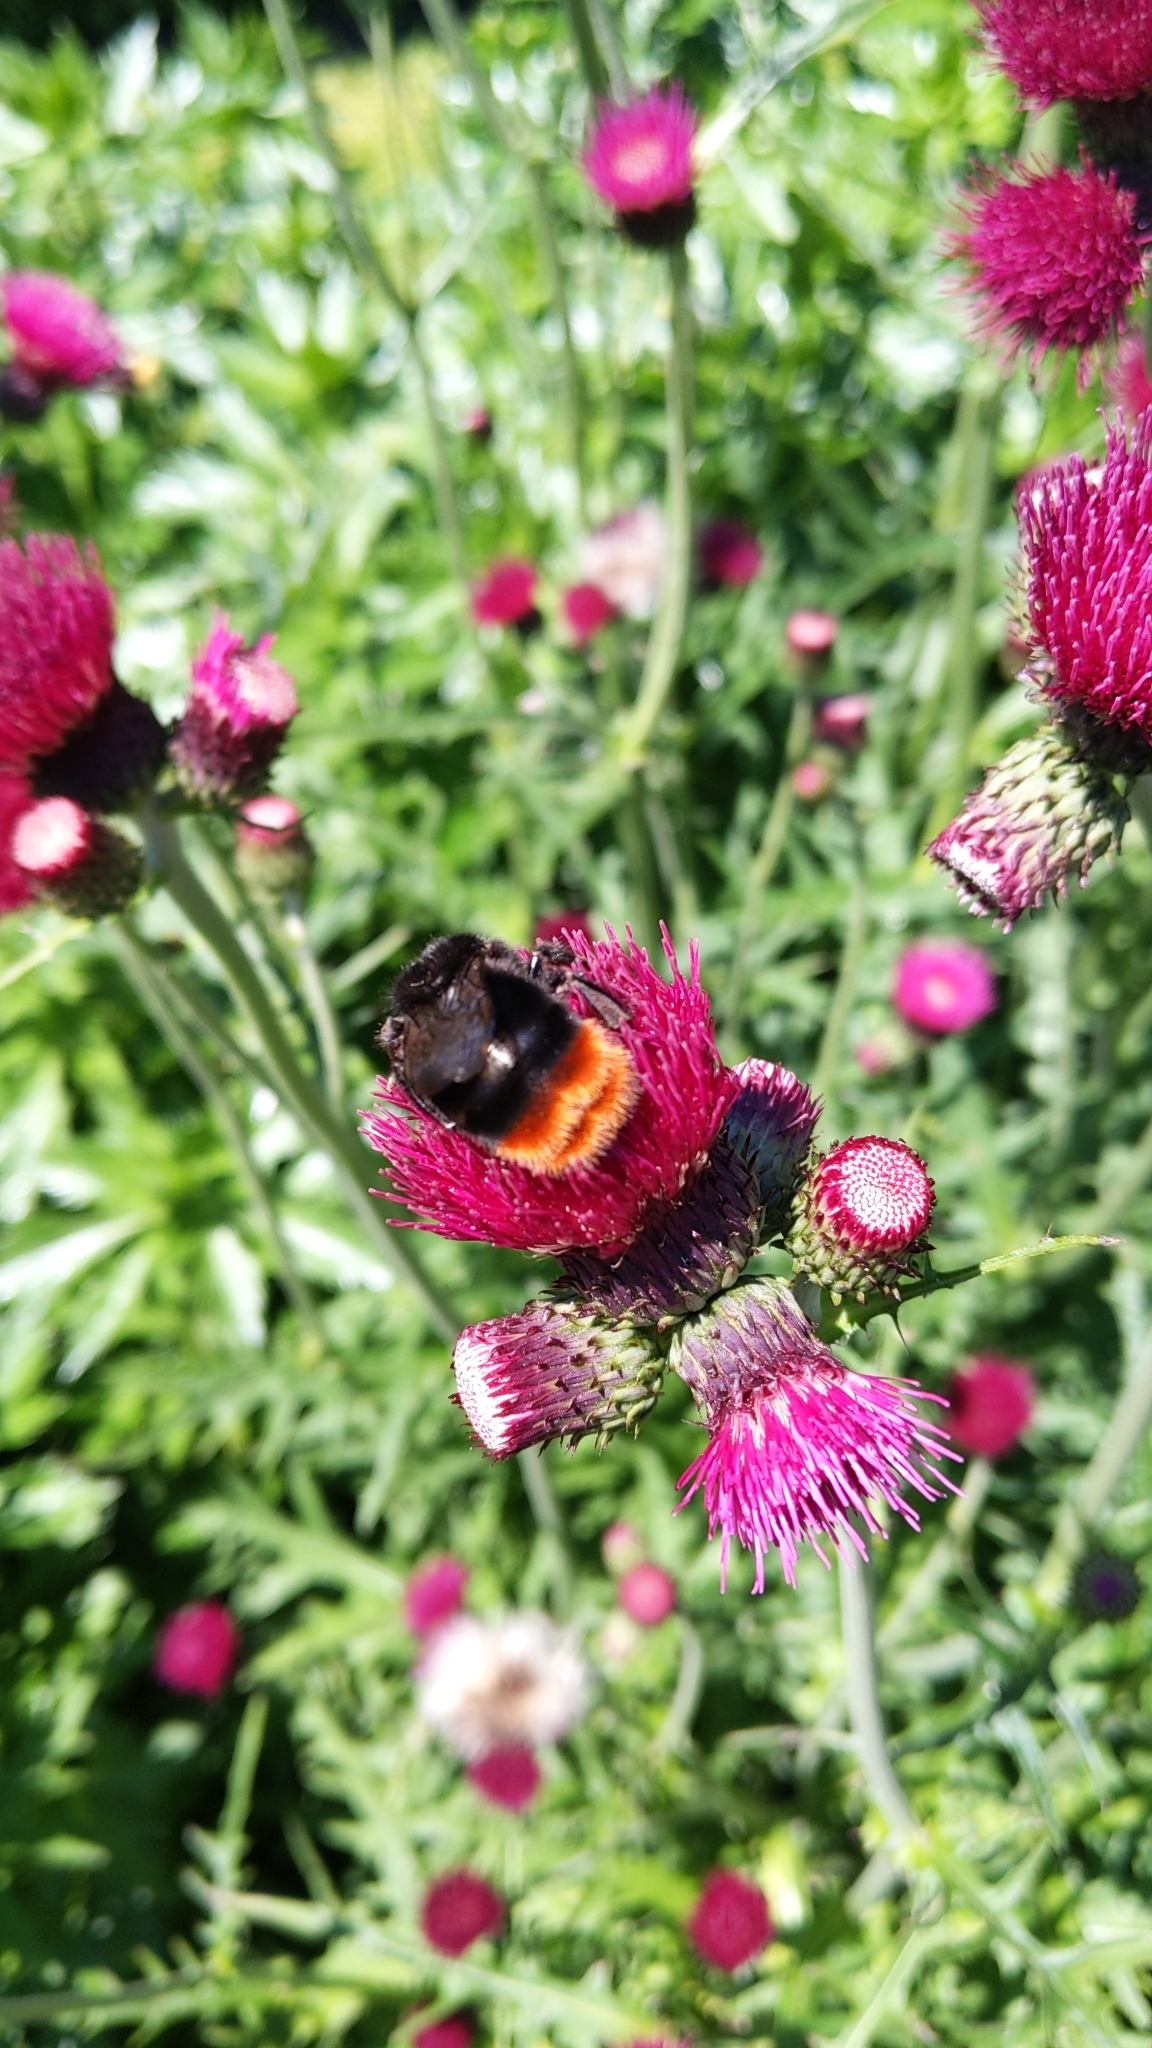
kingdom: Animalia
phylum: Arthropoda
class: Insecta
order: Hymenoptera
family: Apidae
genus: Bombus
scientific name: Bombus lapidarius
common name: Large red-tailed humble-bee
